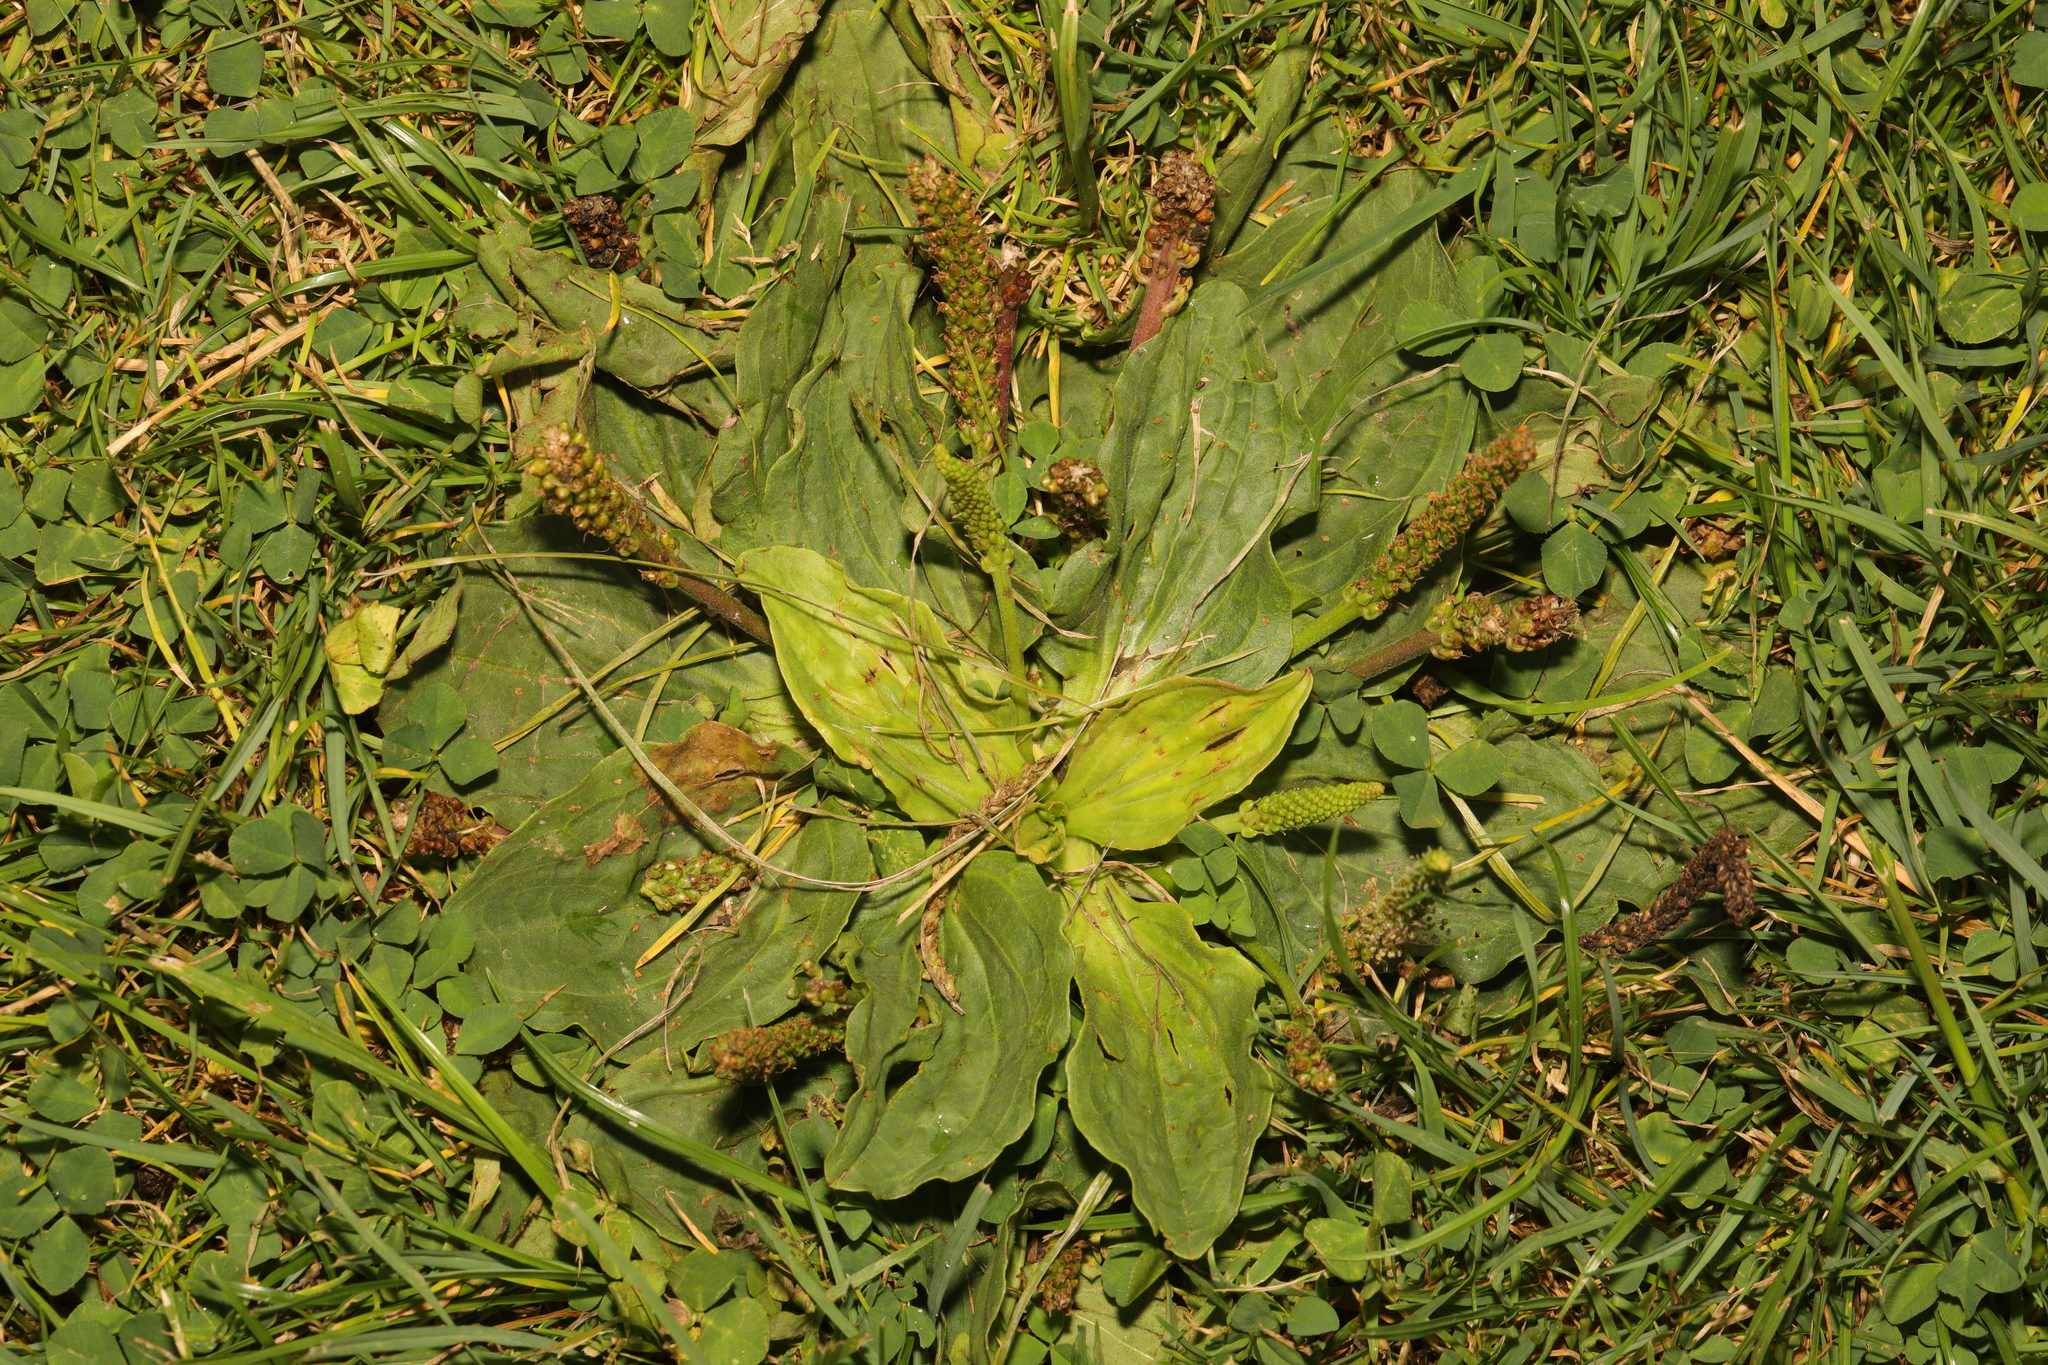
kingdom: Plantae
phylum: Tracheophyta
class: Magnoliopsida
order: Lamiales
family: Plantaginaceae
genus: Plantago
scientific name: Plantago major
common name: Common plantain
